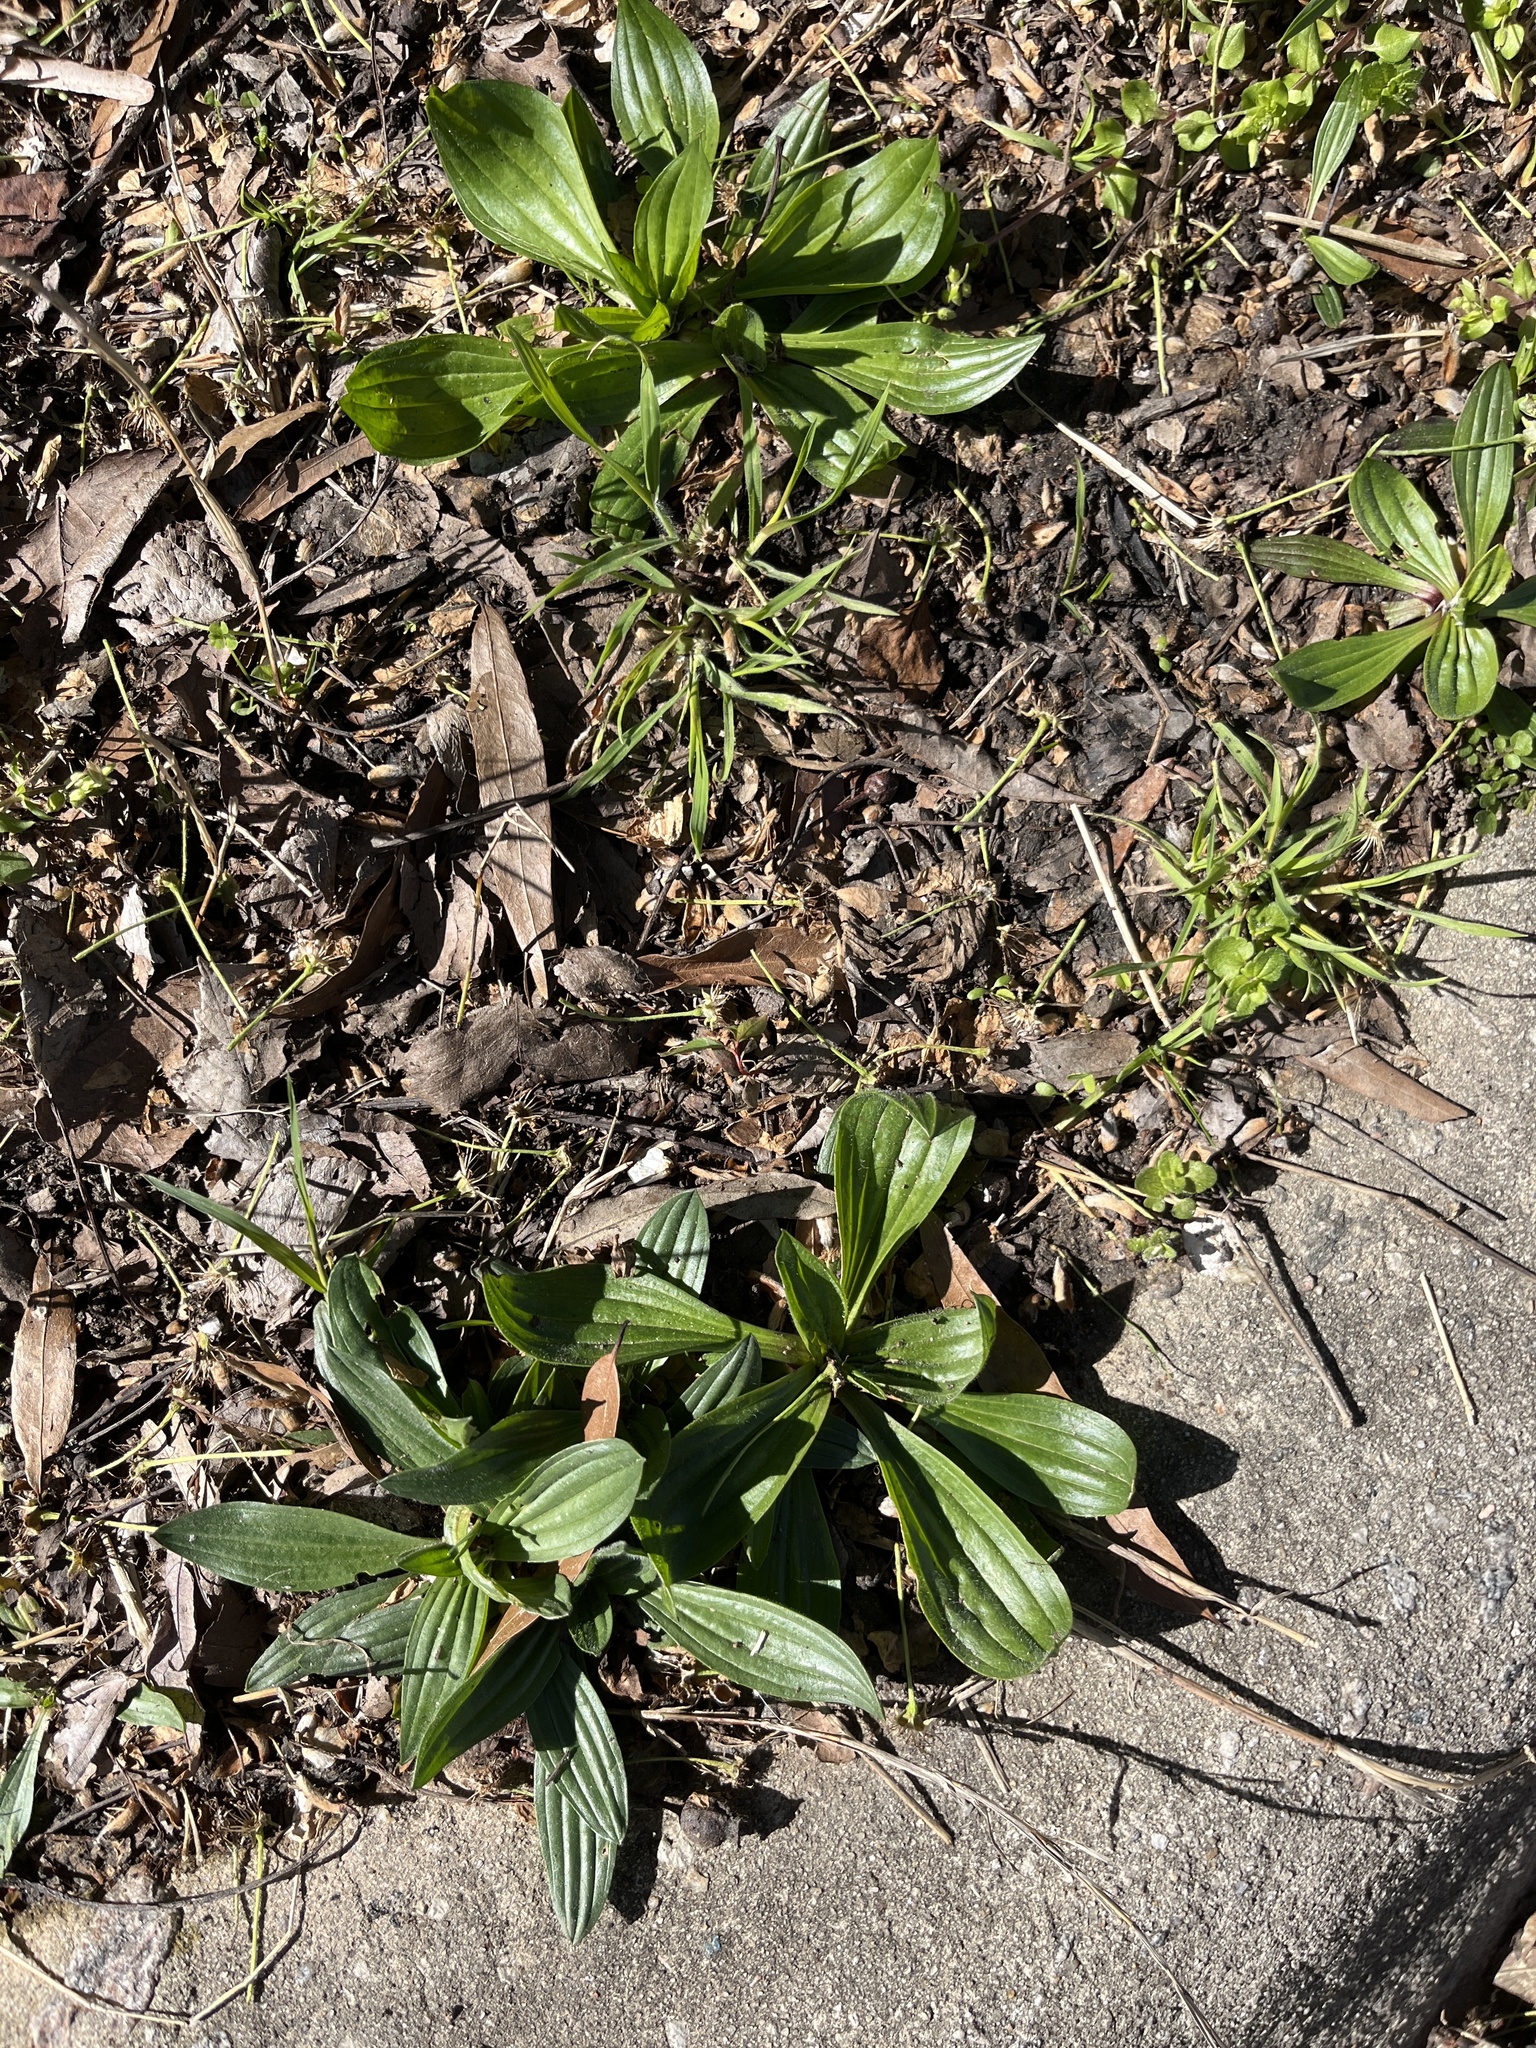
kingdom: Plantae
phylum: Tracheophyta
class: Magnoliopsida
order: Lamiales
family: Plantaginaceae
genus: Plantago
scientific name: Plantago lanceolata
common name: Ribwort plantain
